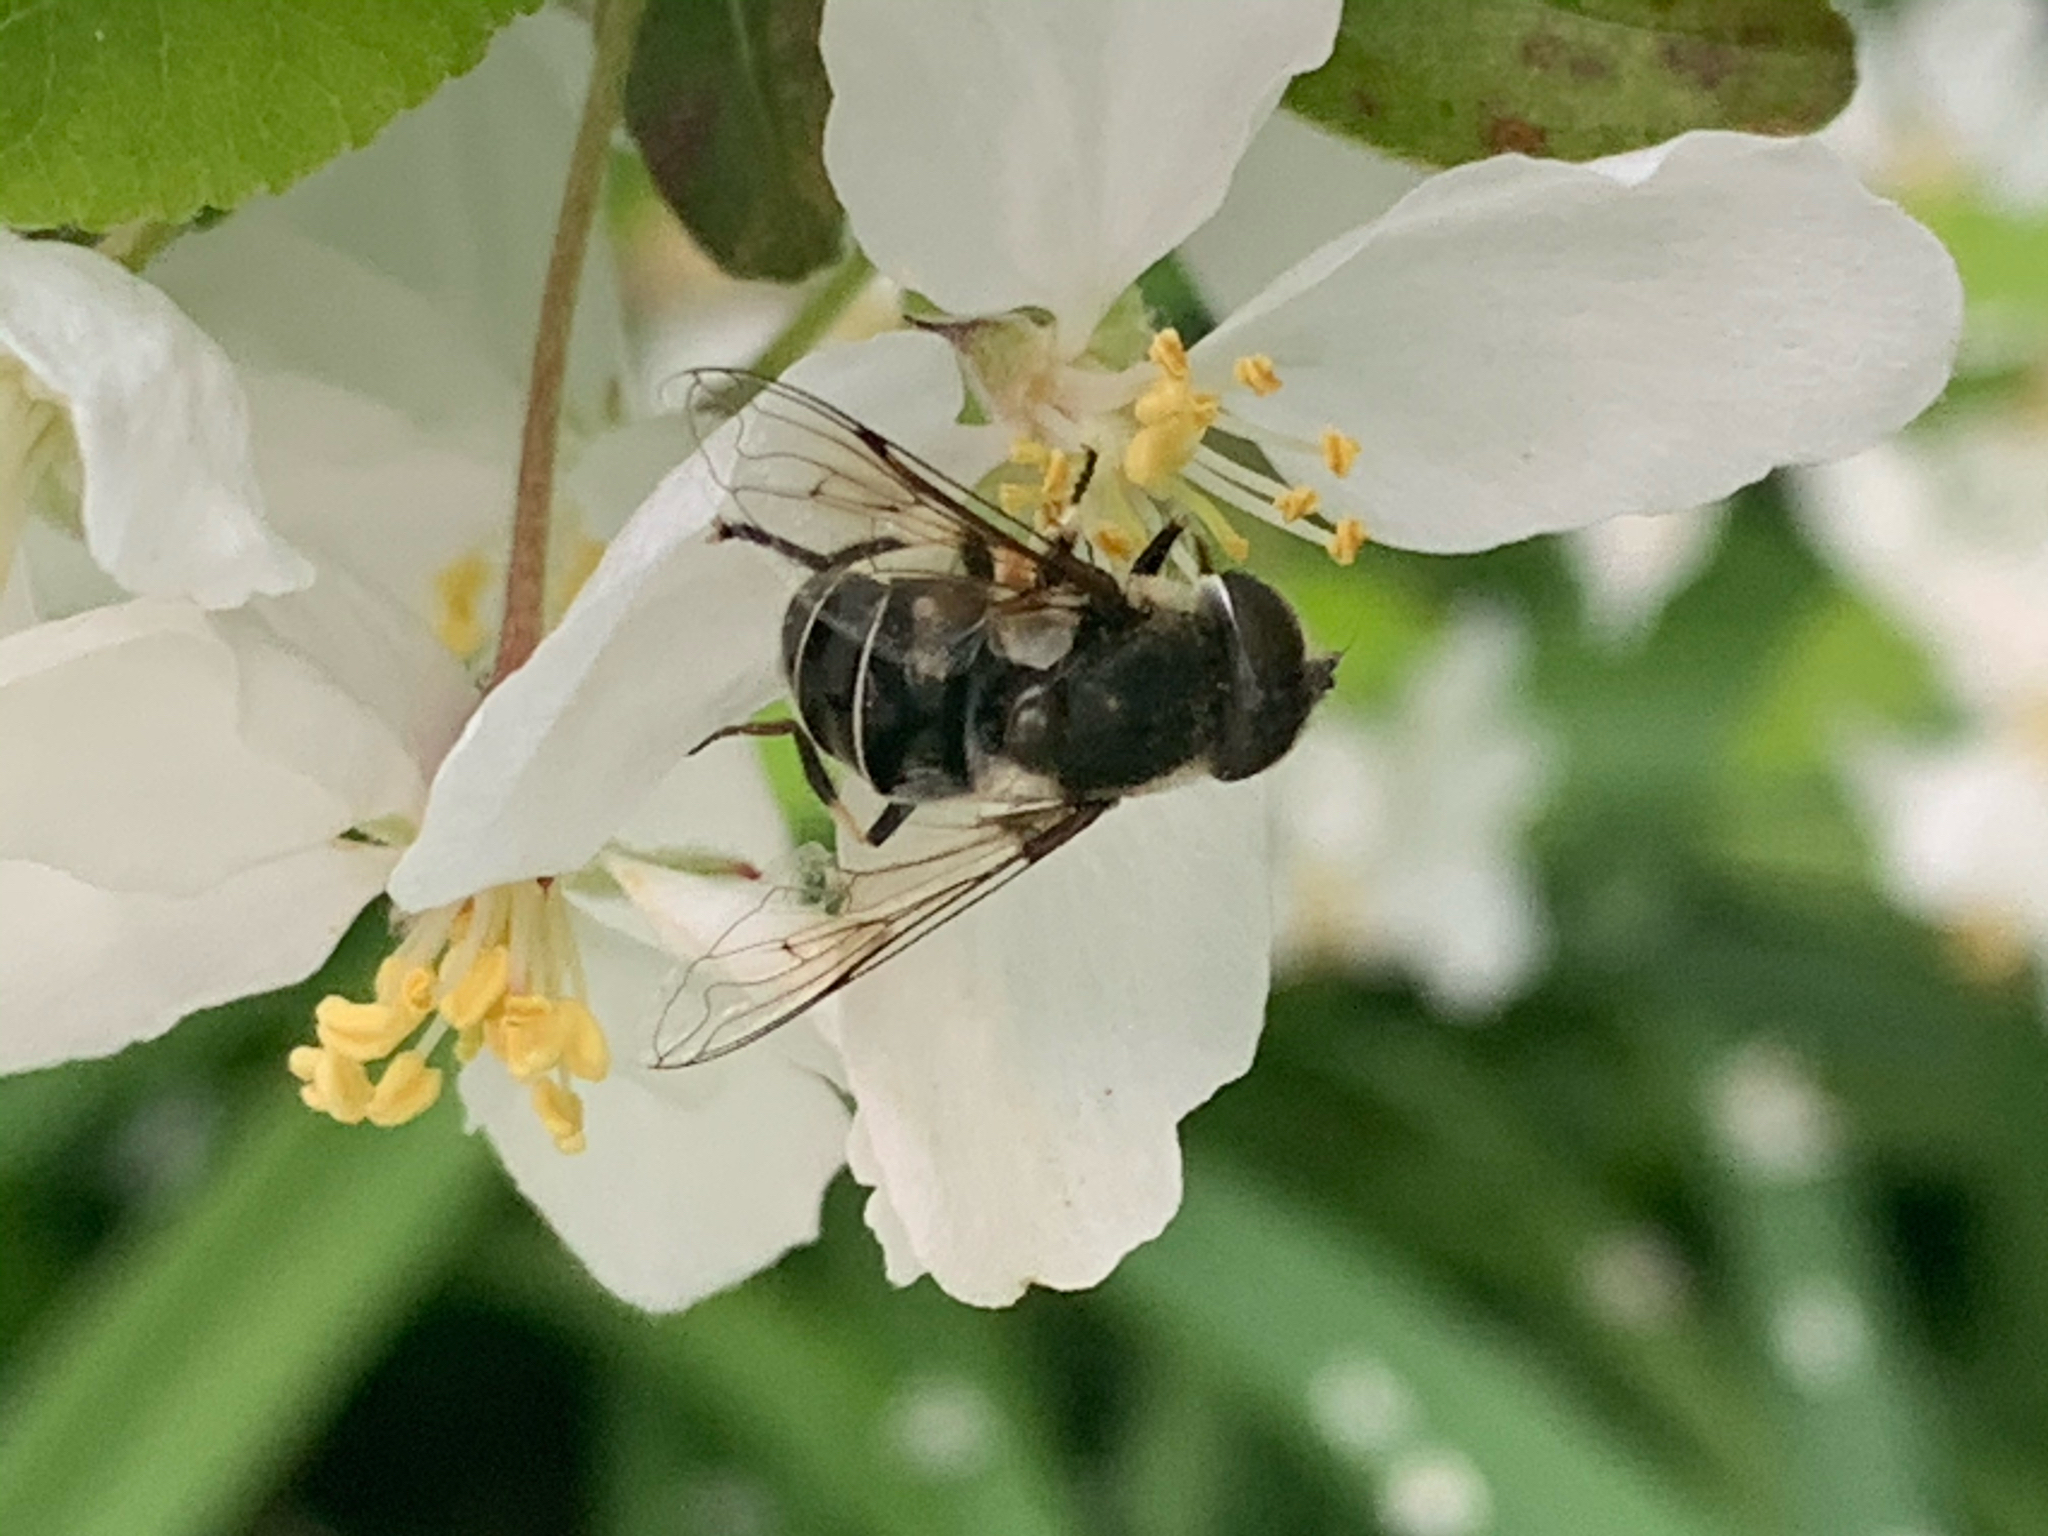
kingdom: Animalia
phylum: Arthropoda
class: Insecta
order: Diptera
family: Syrphidae
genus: Eristalis
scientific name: Eristalis dimidiata
